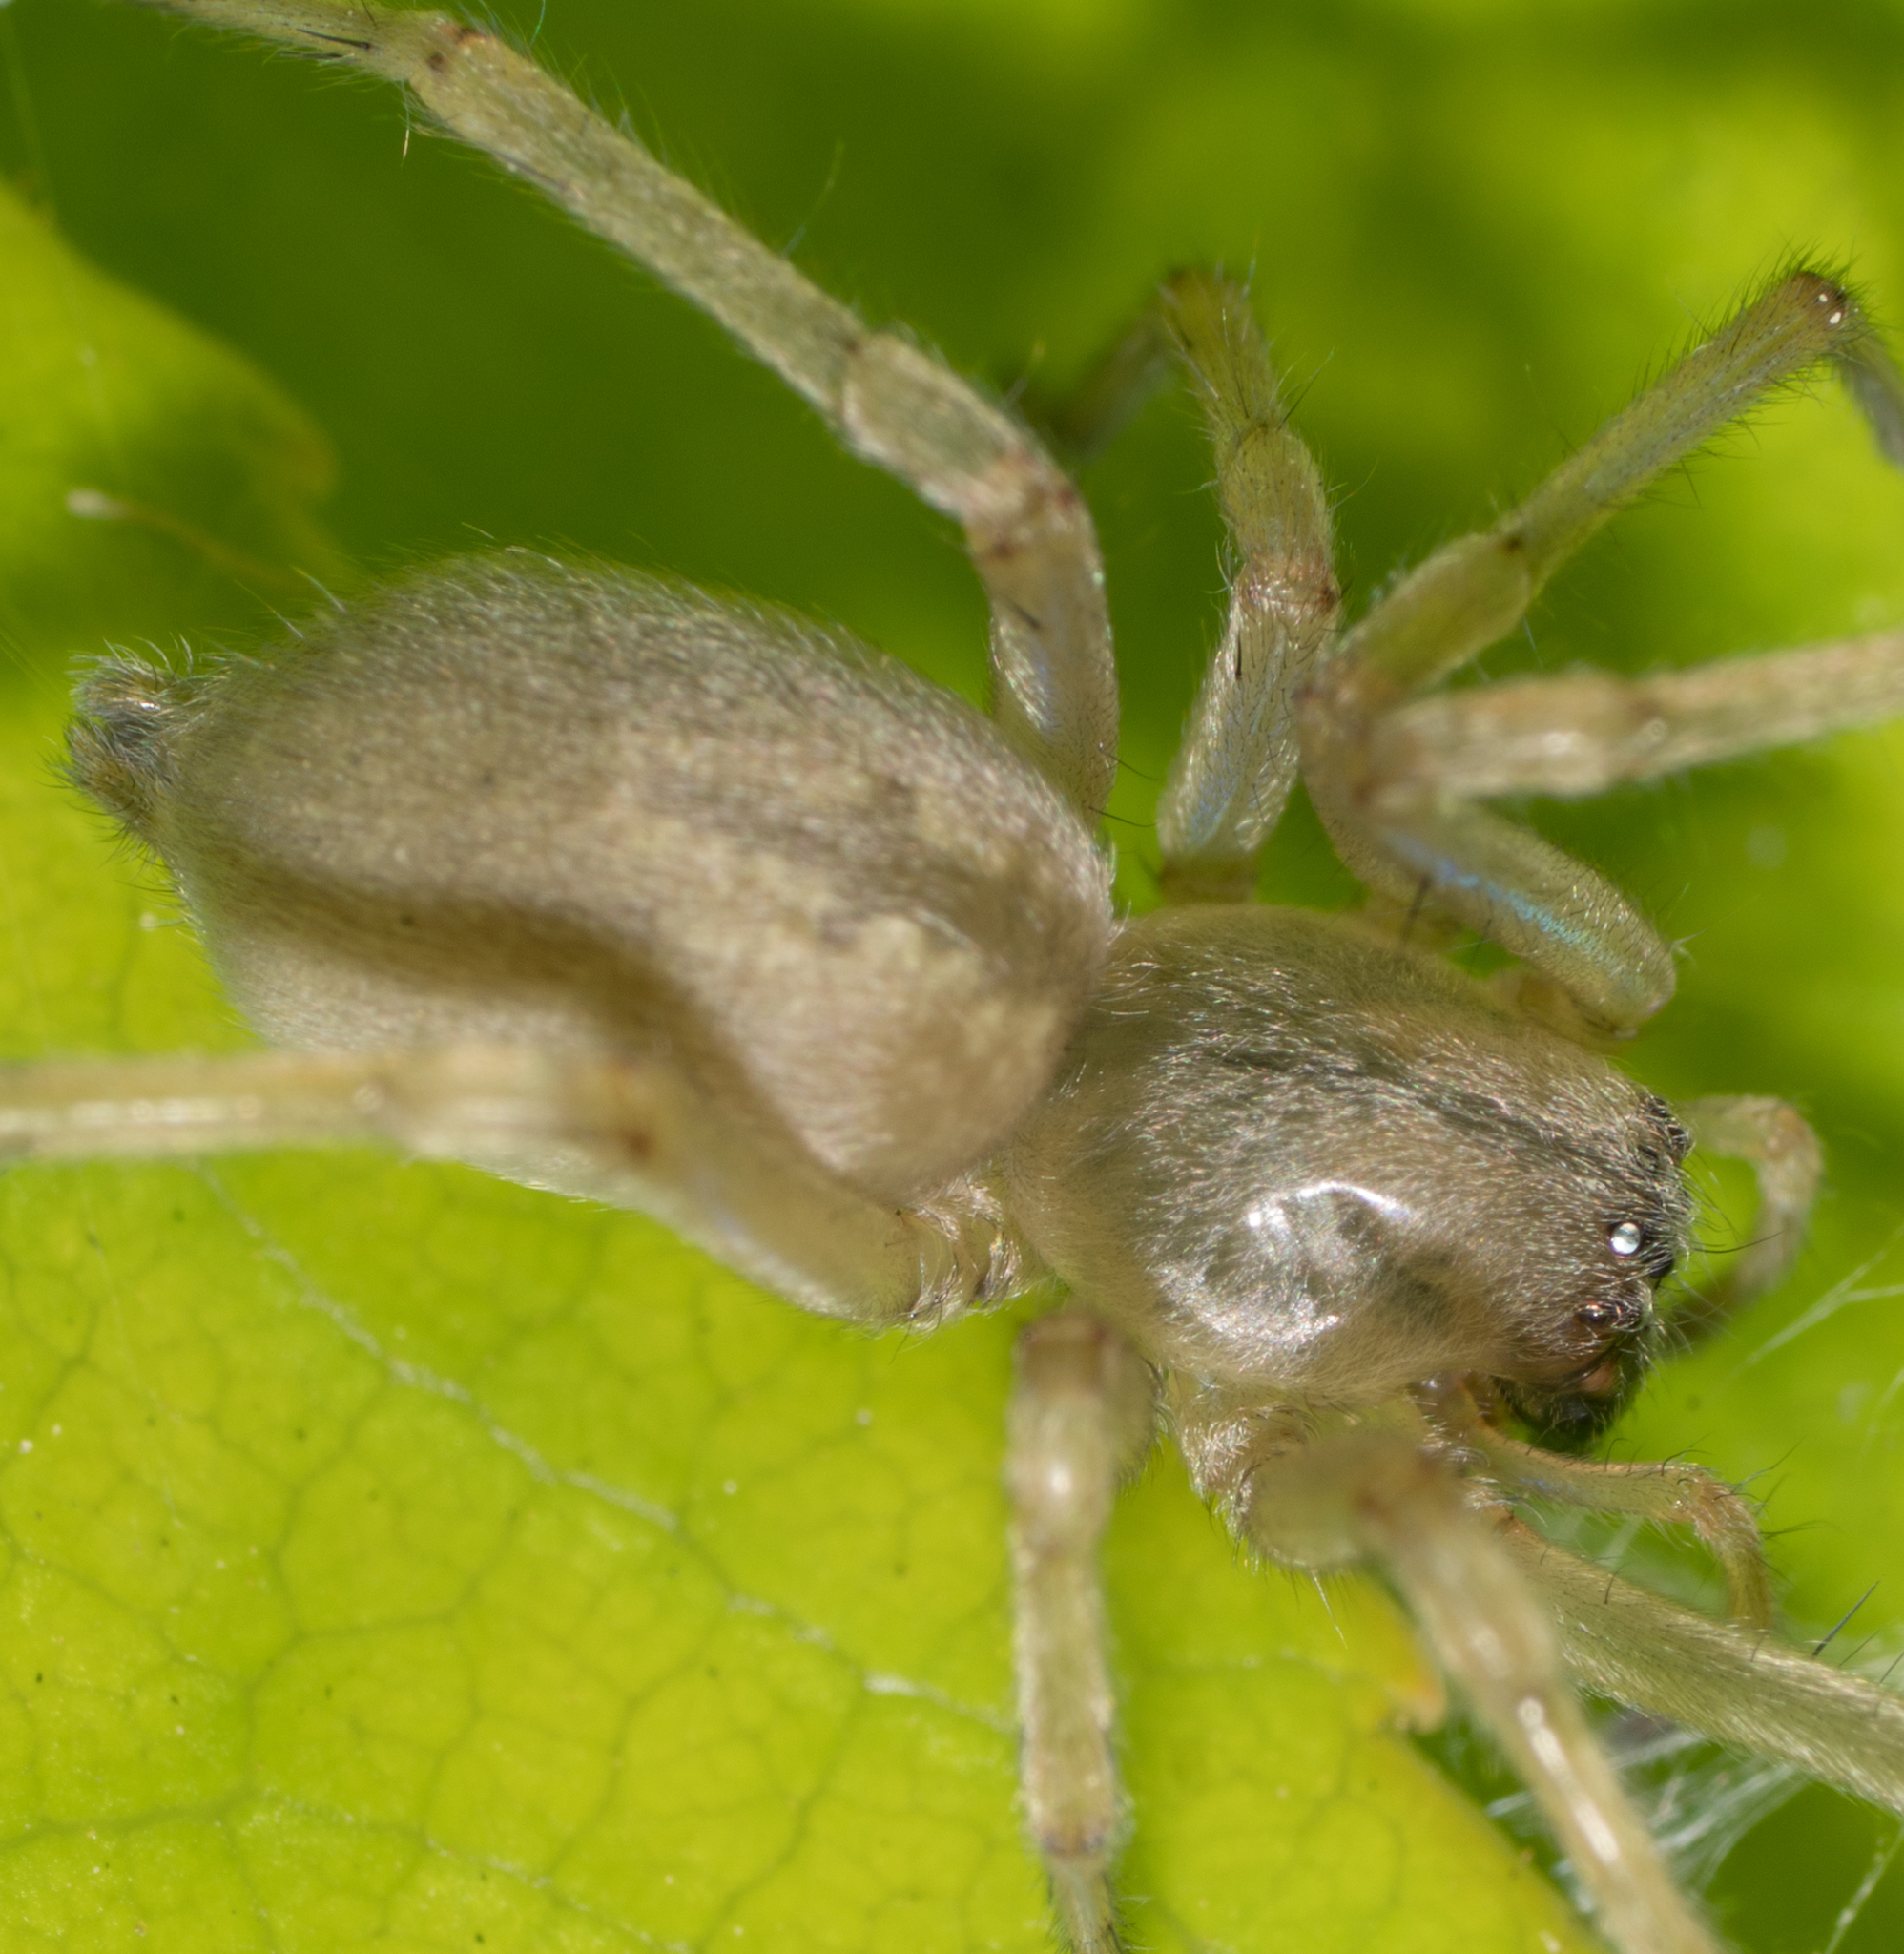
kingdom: Animalia
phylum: Arthropoda
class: Arachnida
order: Araneae
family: Cheiracanthiidae
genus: Cheiracanthium
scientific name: Cheiracanthium mildei
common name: Northern yellow sac spider
